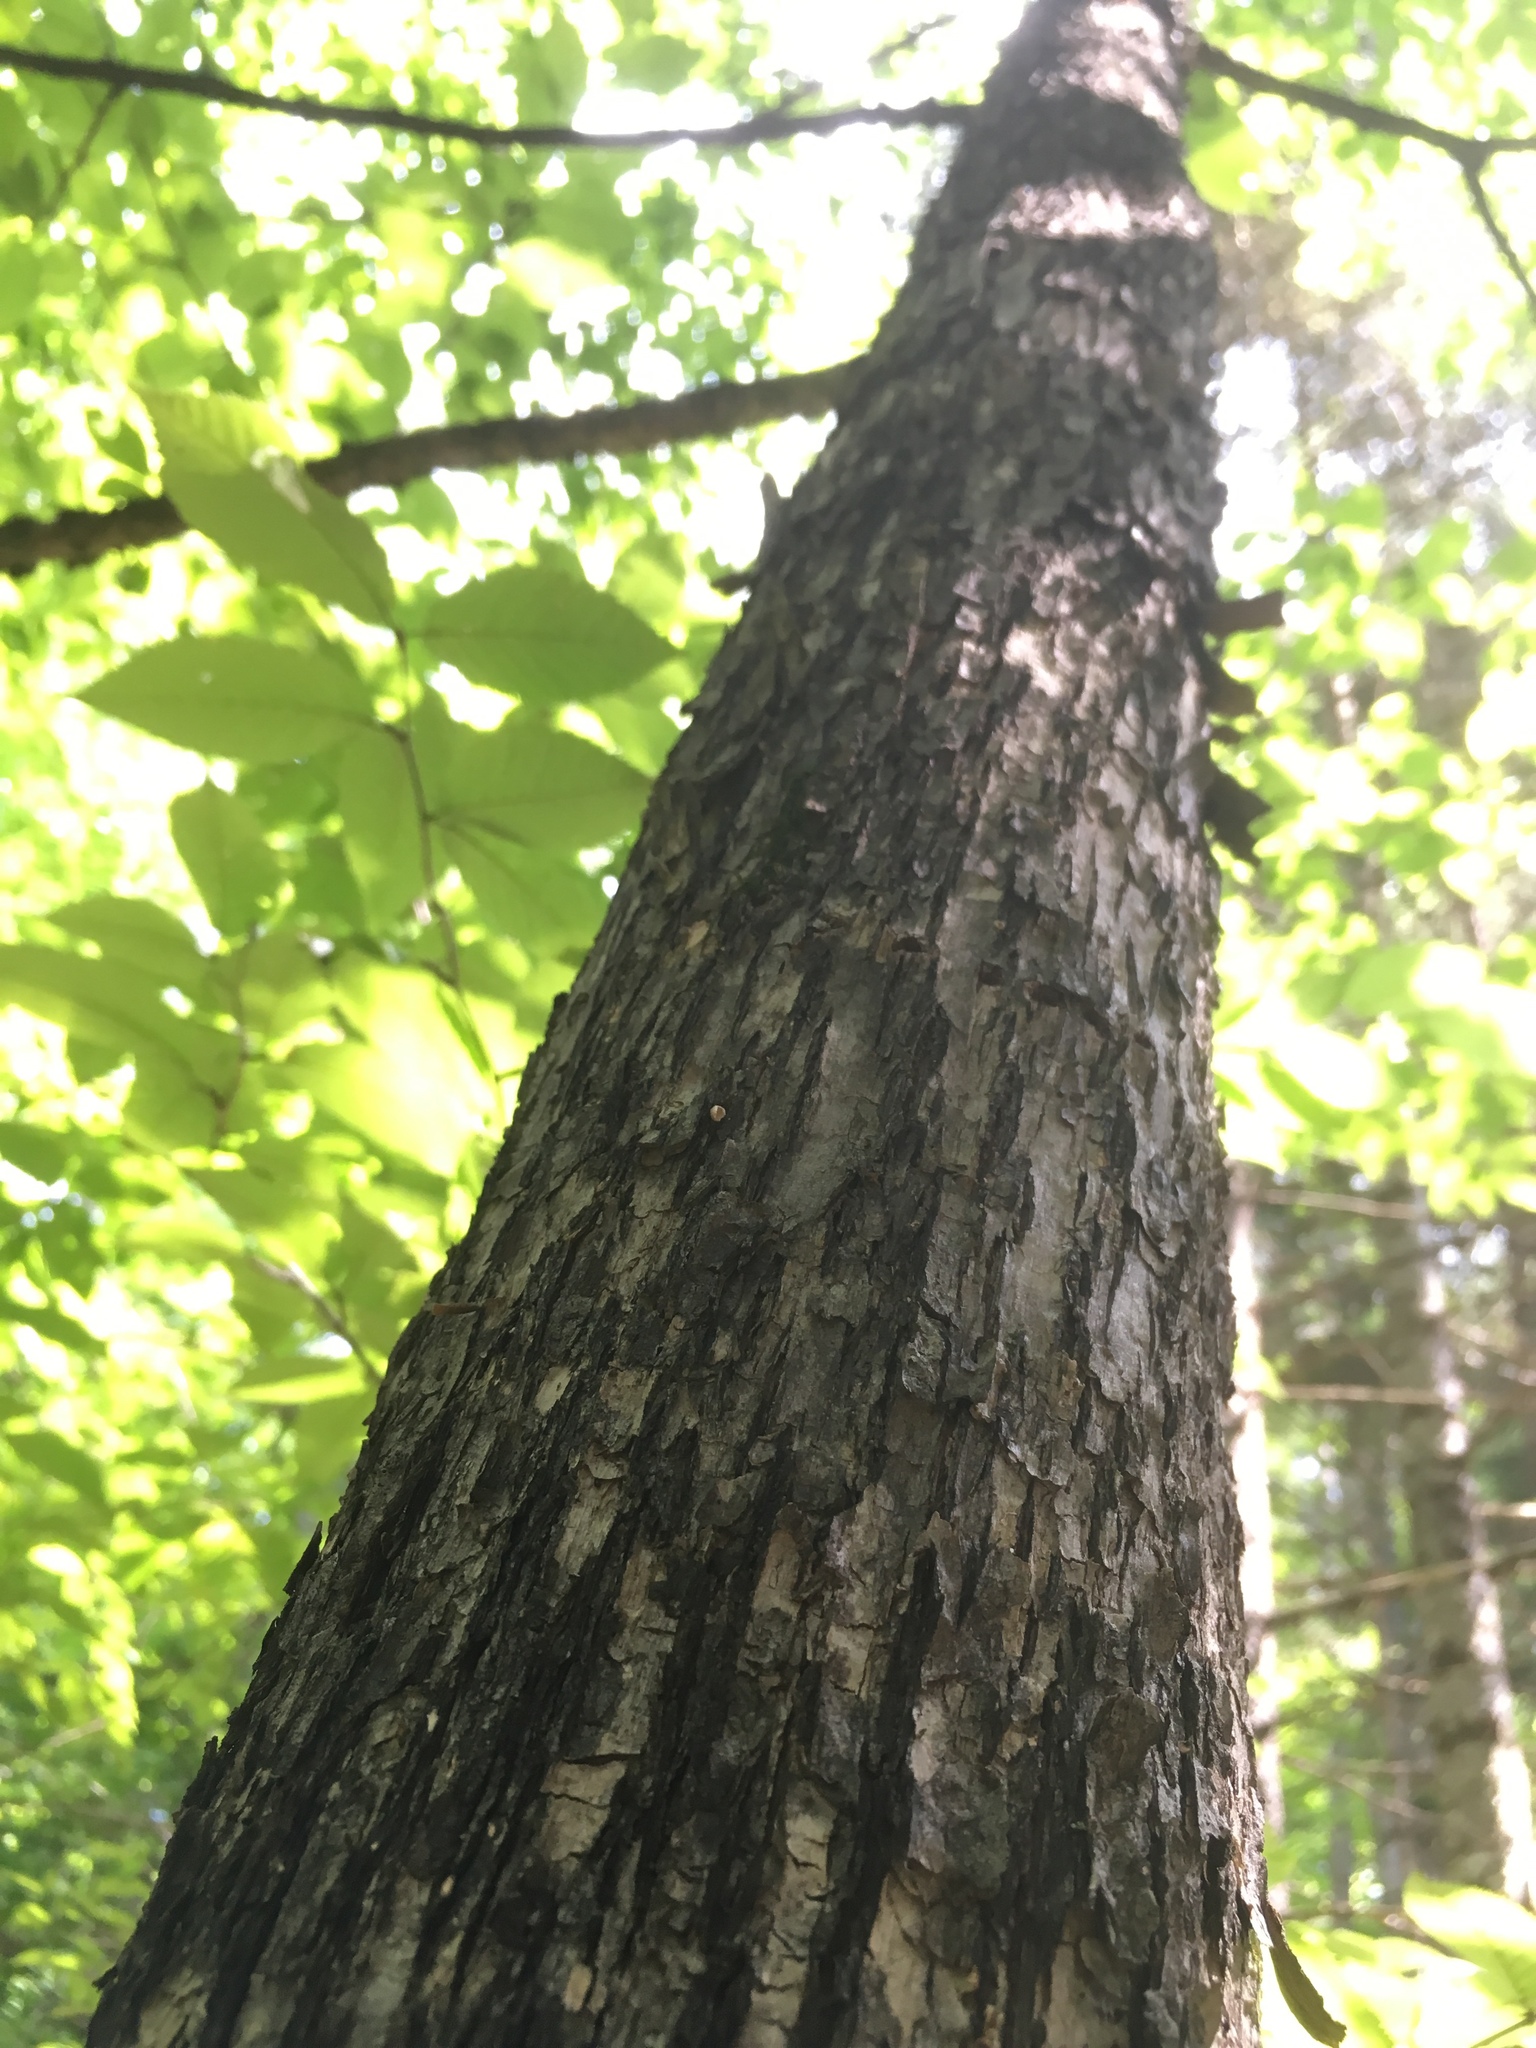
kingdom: Plantae
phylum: Tracheophyta
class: Magnoliopsida
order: Fagales
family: Betulaceae
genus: Ostrya
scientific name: Ostrya virginiana
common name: Ironwood
